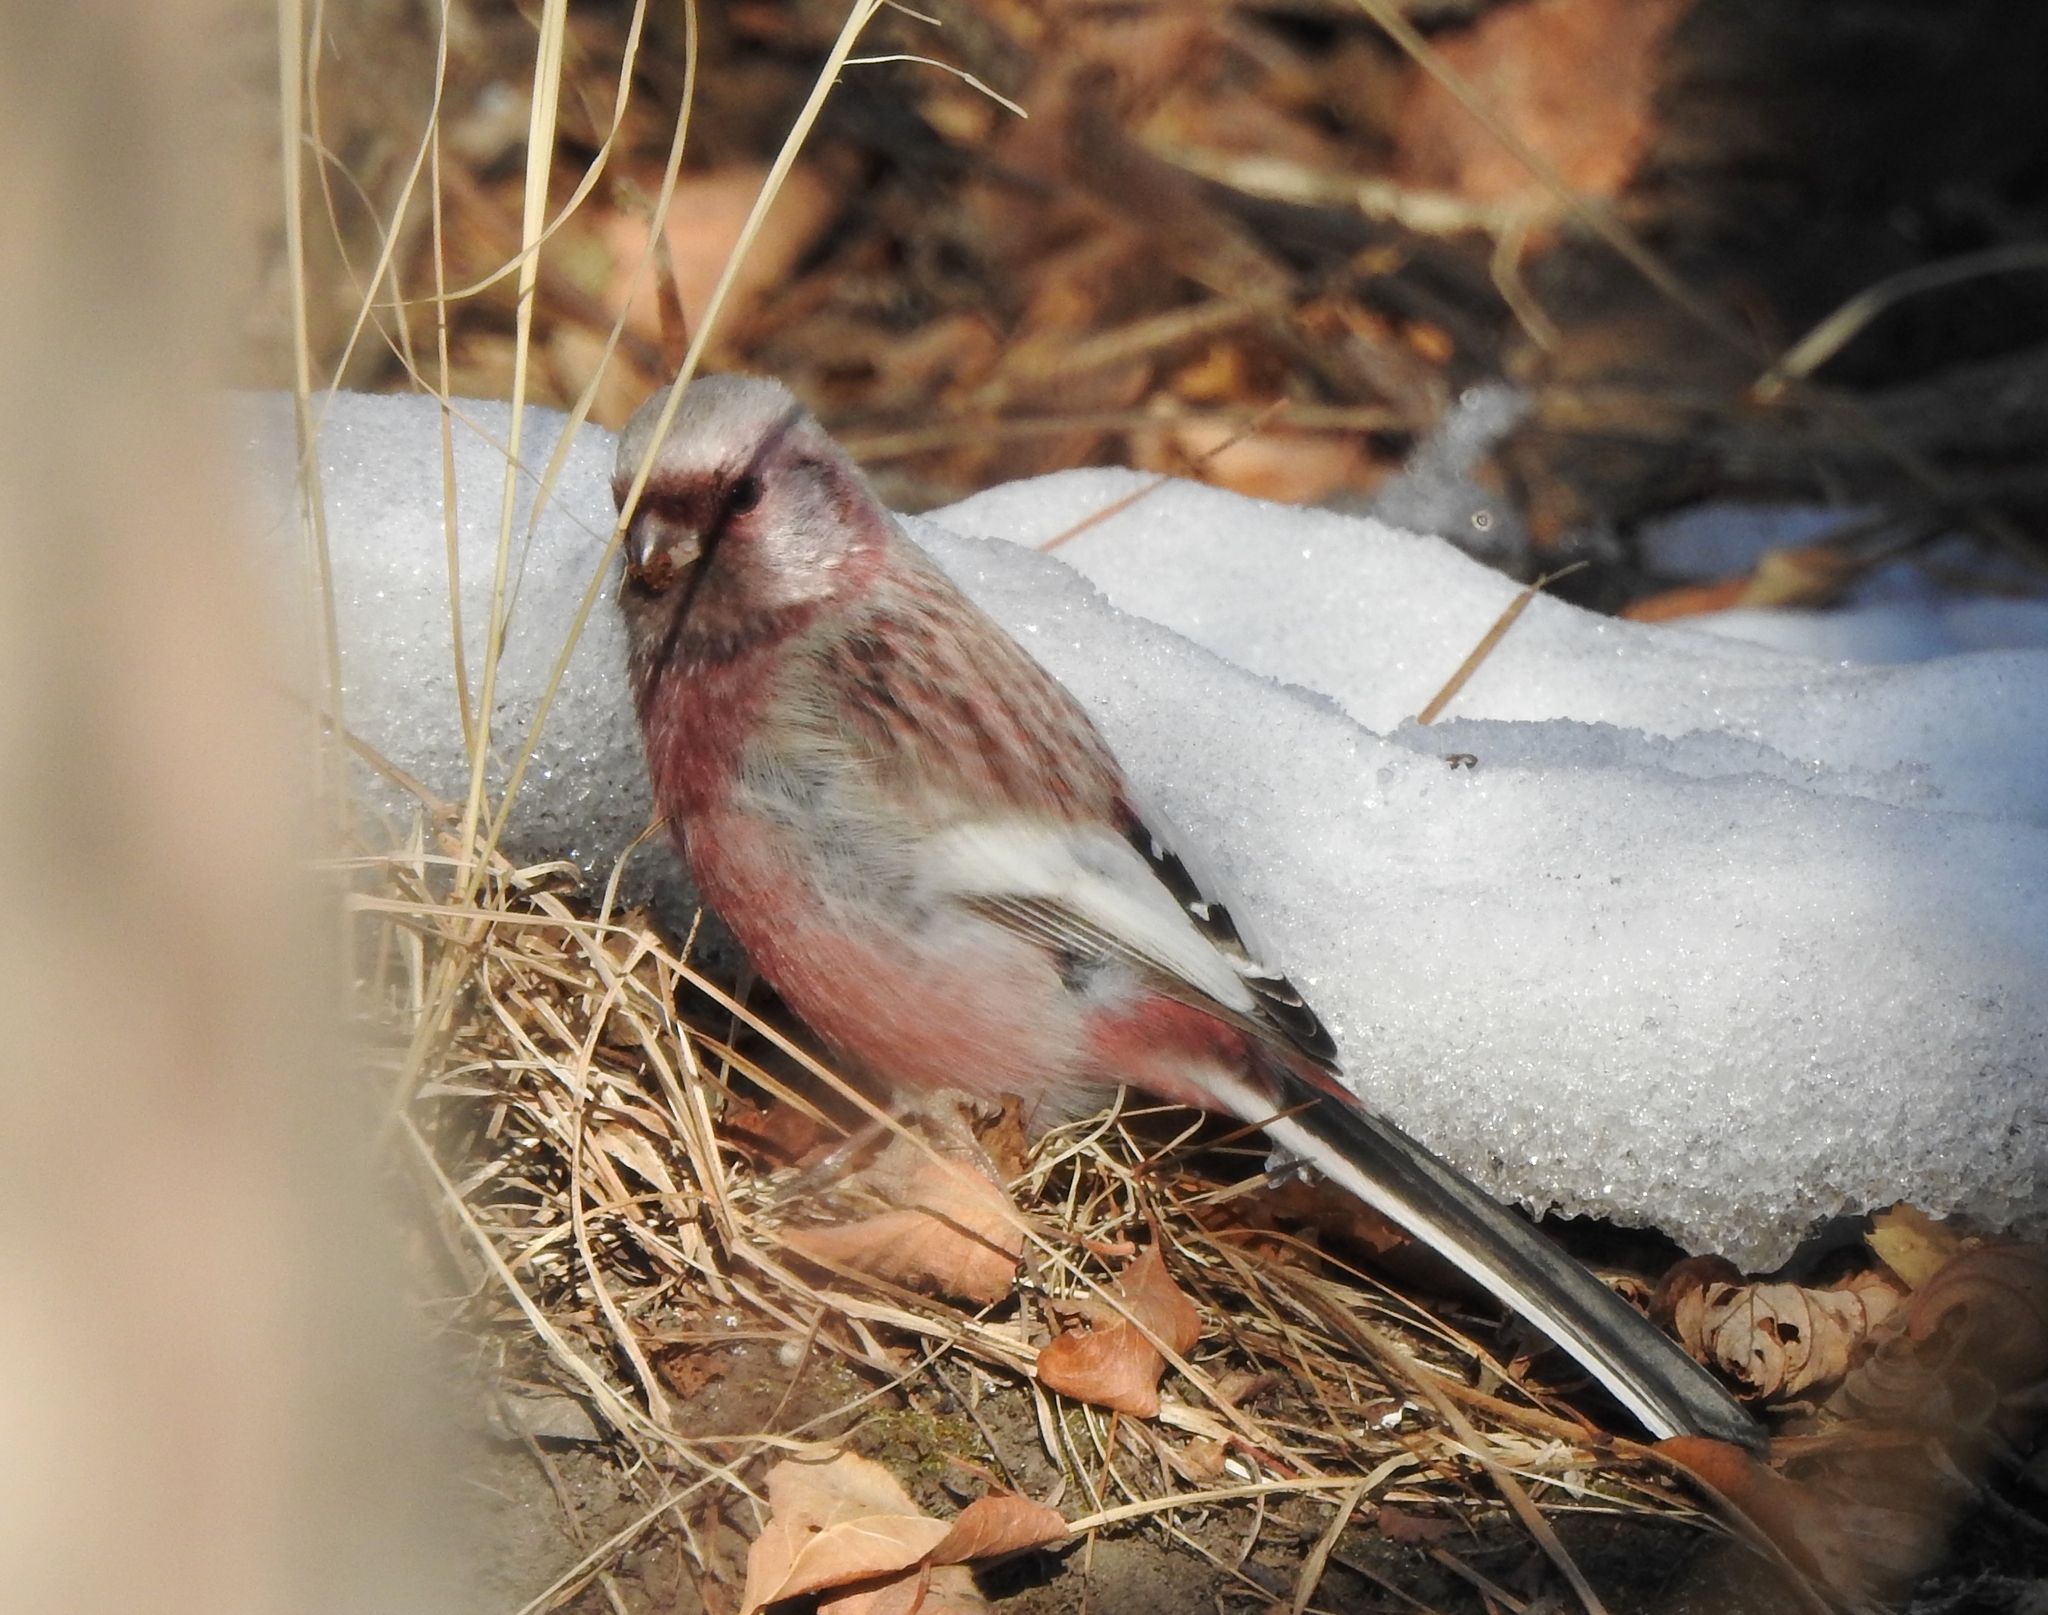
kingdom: Animalia
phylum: Chordata
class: Aves
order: Passeriformes
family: Fringillidae
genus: Carpodacus
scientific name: Carpodacus sibiricus
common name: Long-tailed rosefinch
